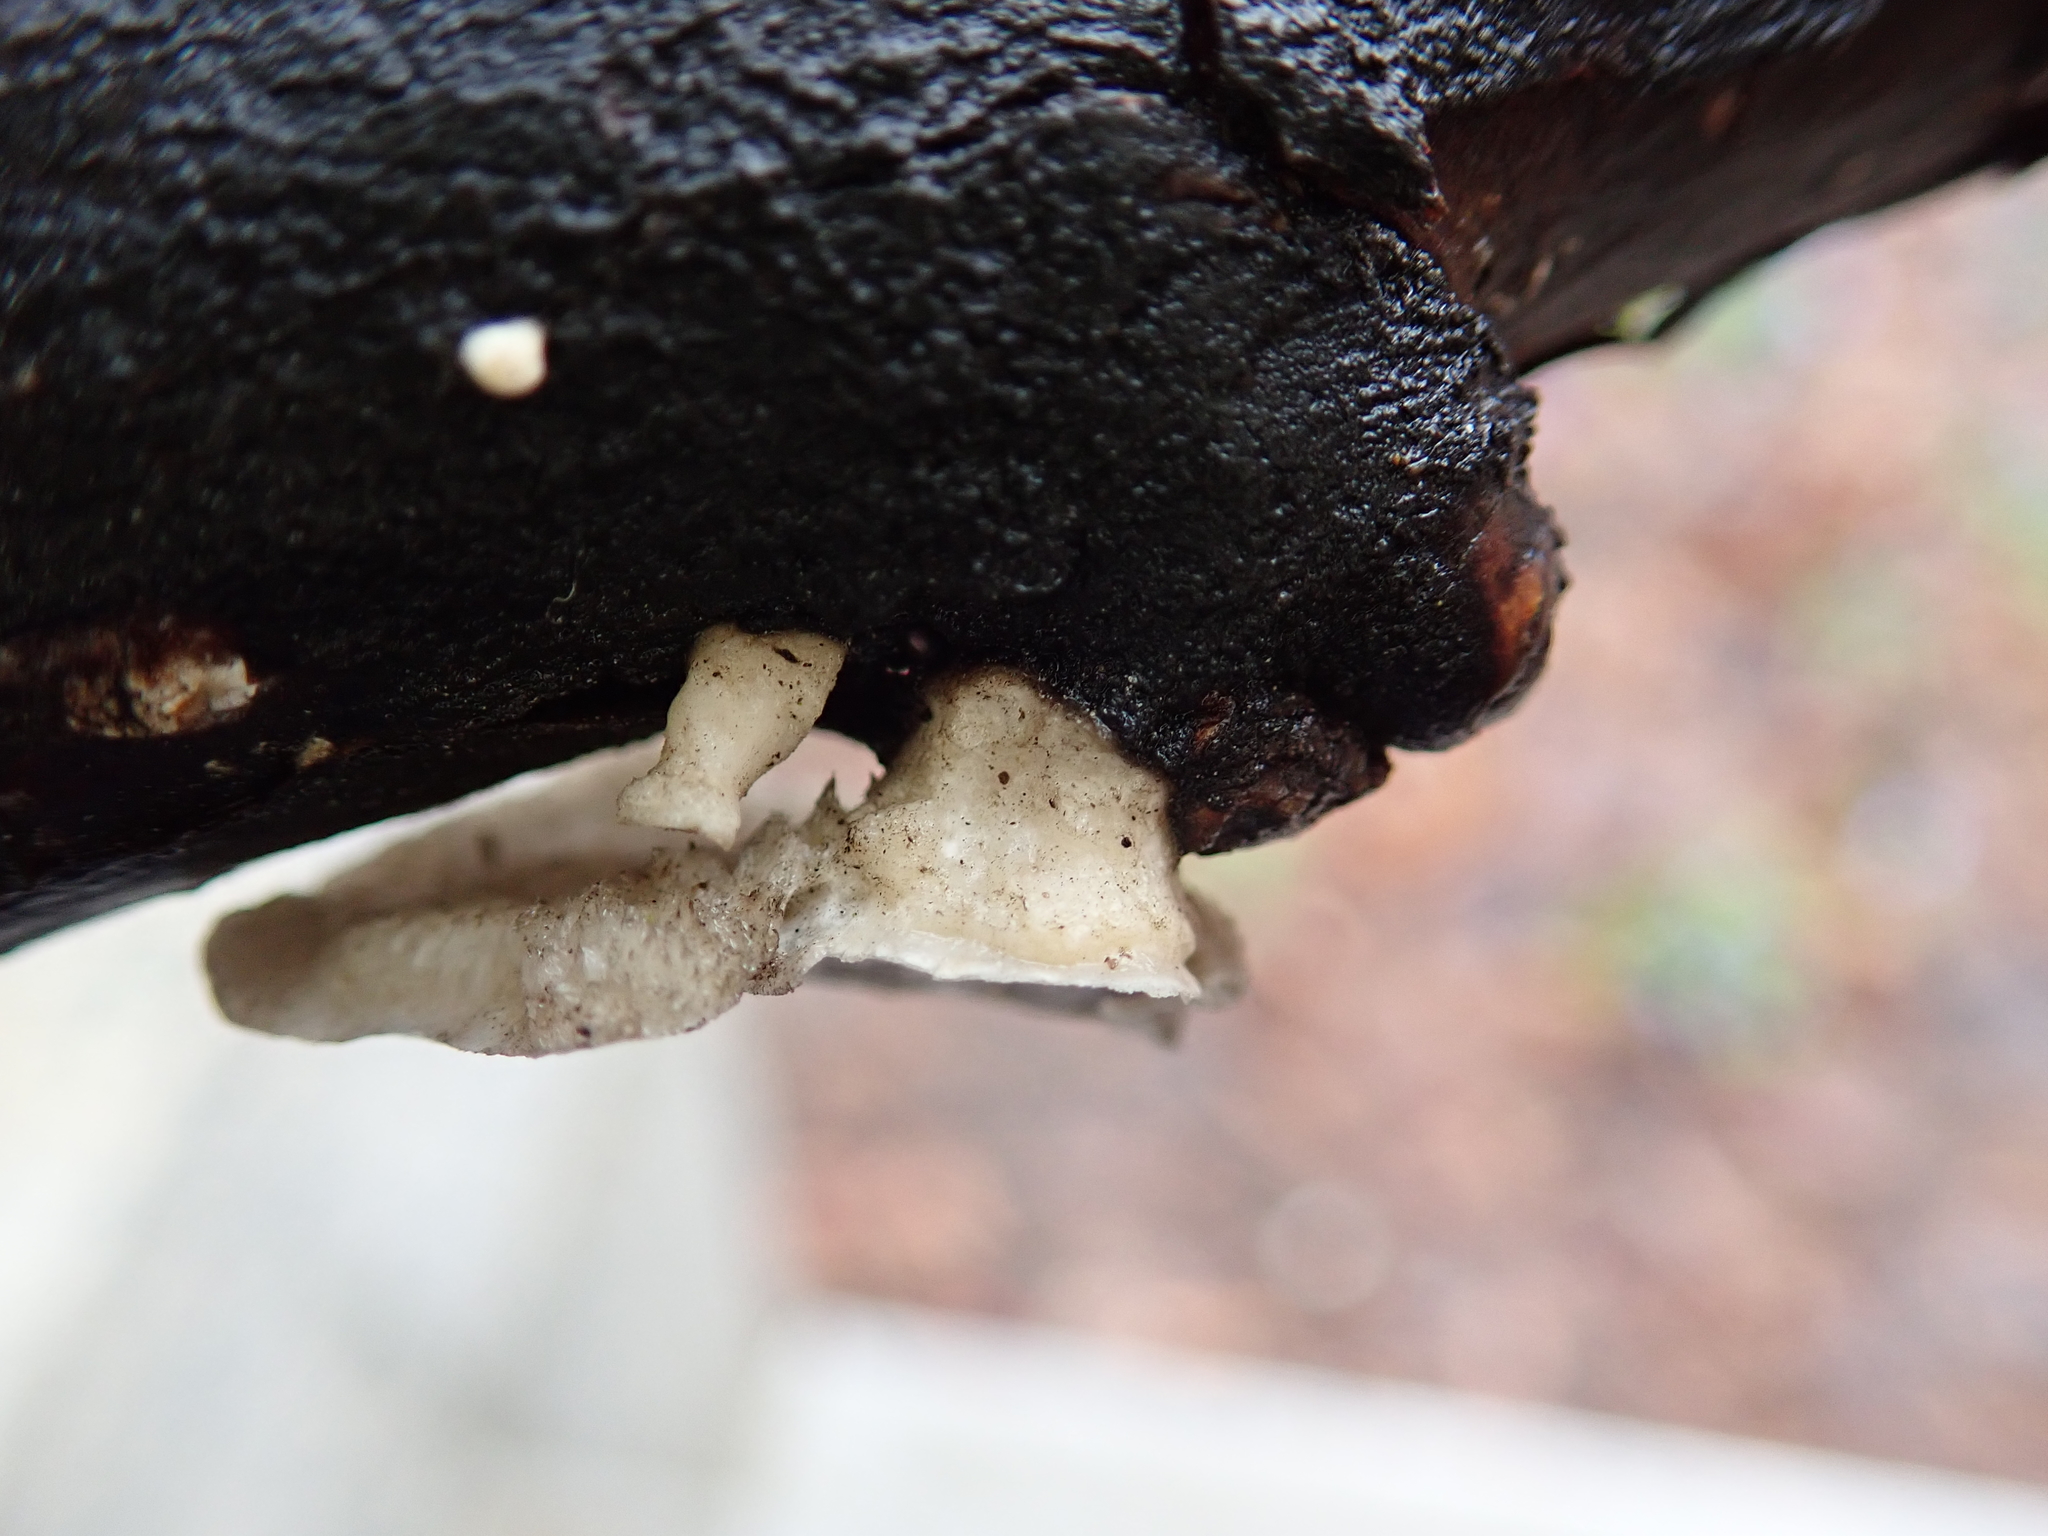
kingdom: Fungi
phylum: Basidiomycota
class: Agaricomycetes
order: Polyporales
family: Polyporaceae
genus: Poronidulus
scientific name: Poronidulus conchifer
